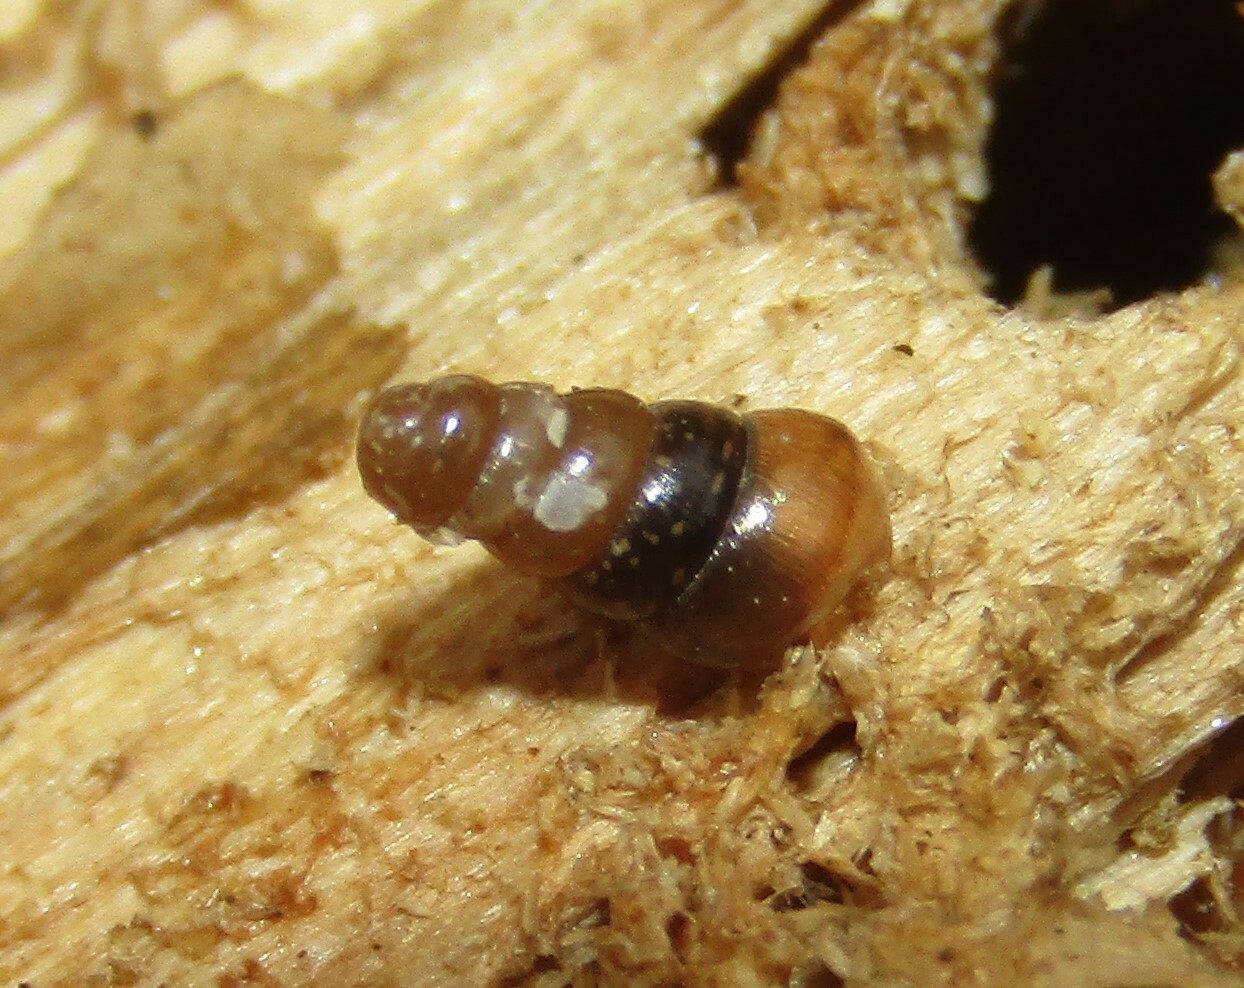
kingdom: Animalia
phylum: Mollusca
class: Gastropoda
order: Stylommatophora
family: Clausiliidae
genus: Cochlodina
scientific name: Cochlodina laminata
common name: Plaited door snail
